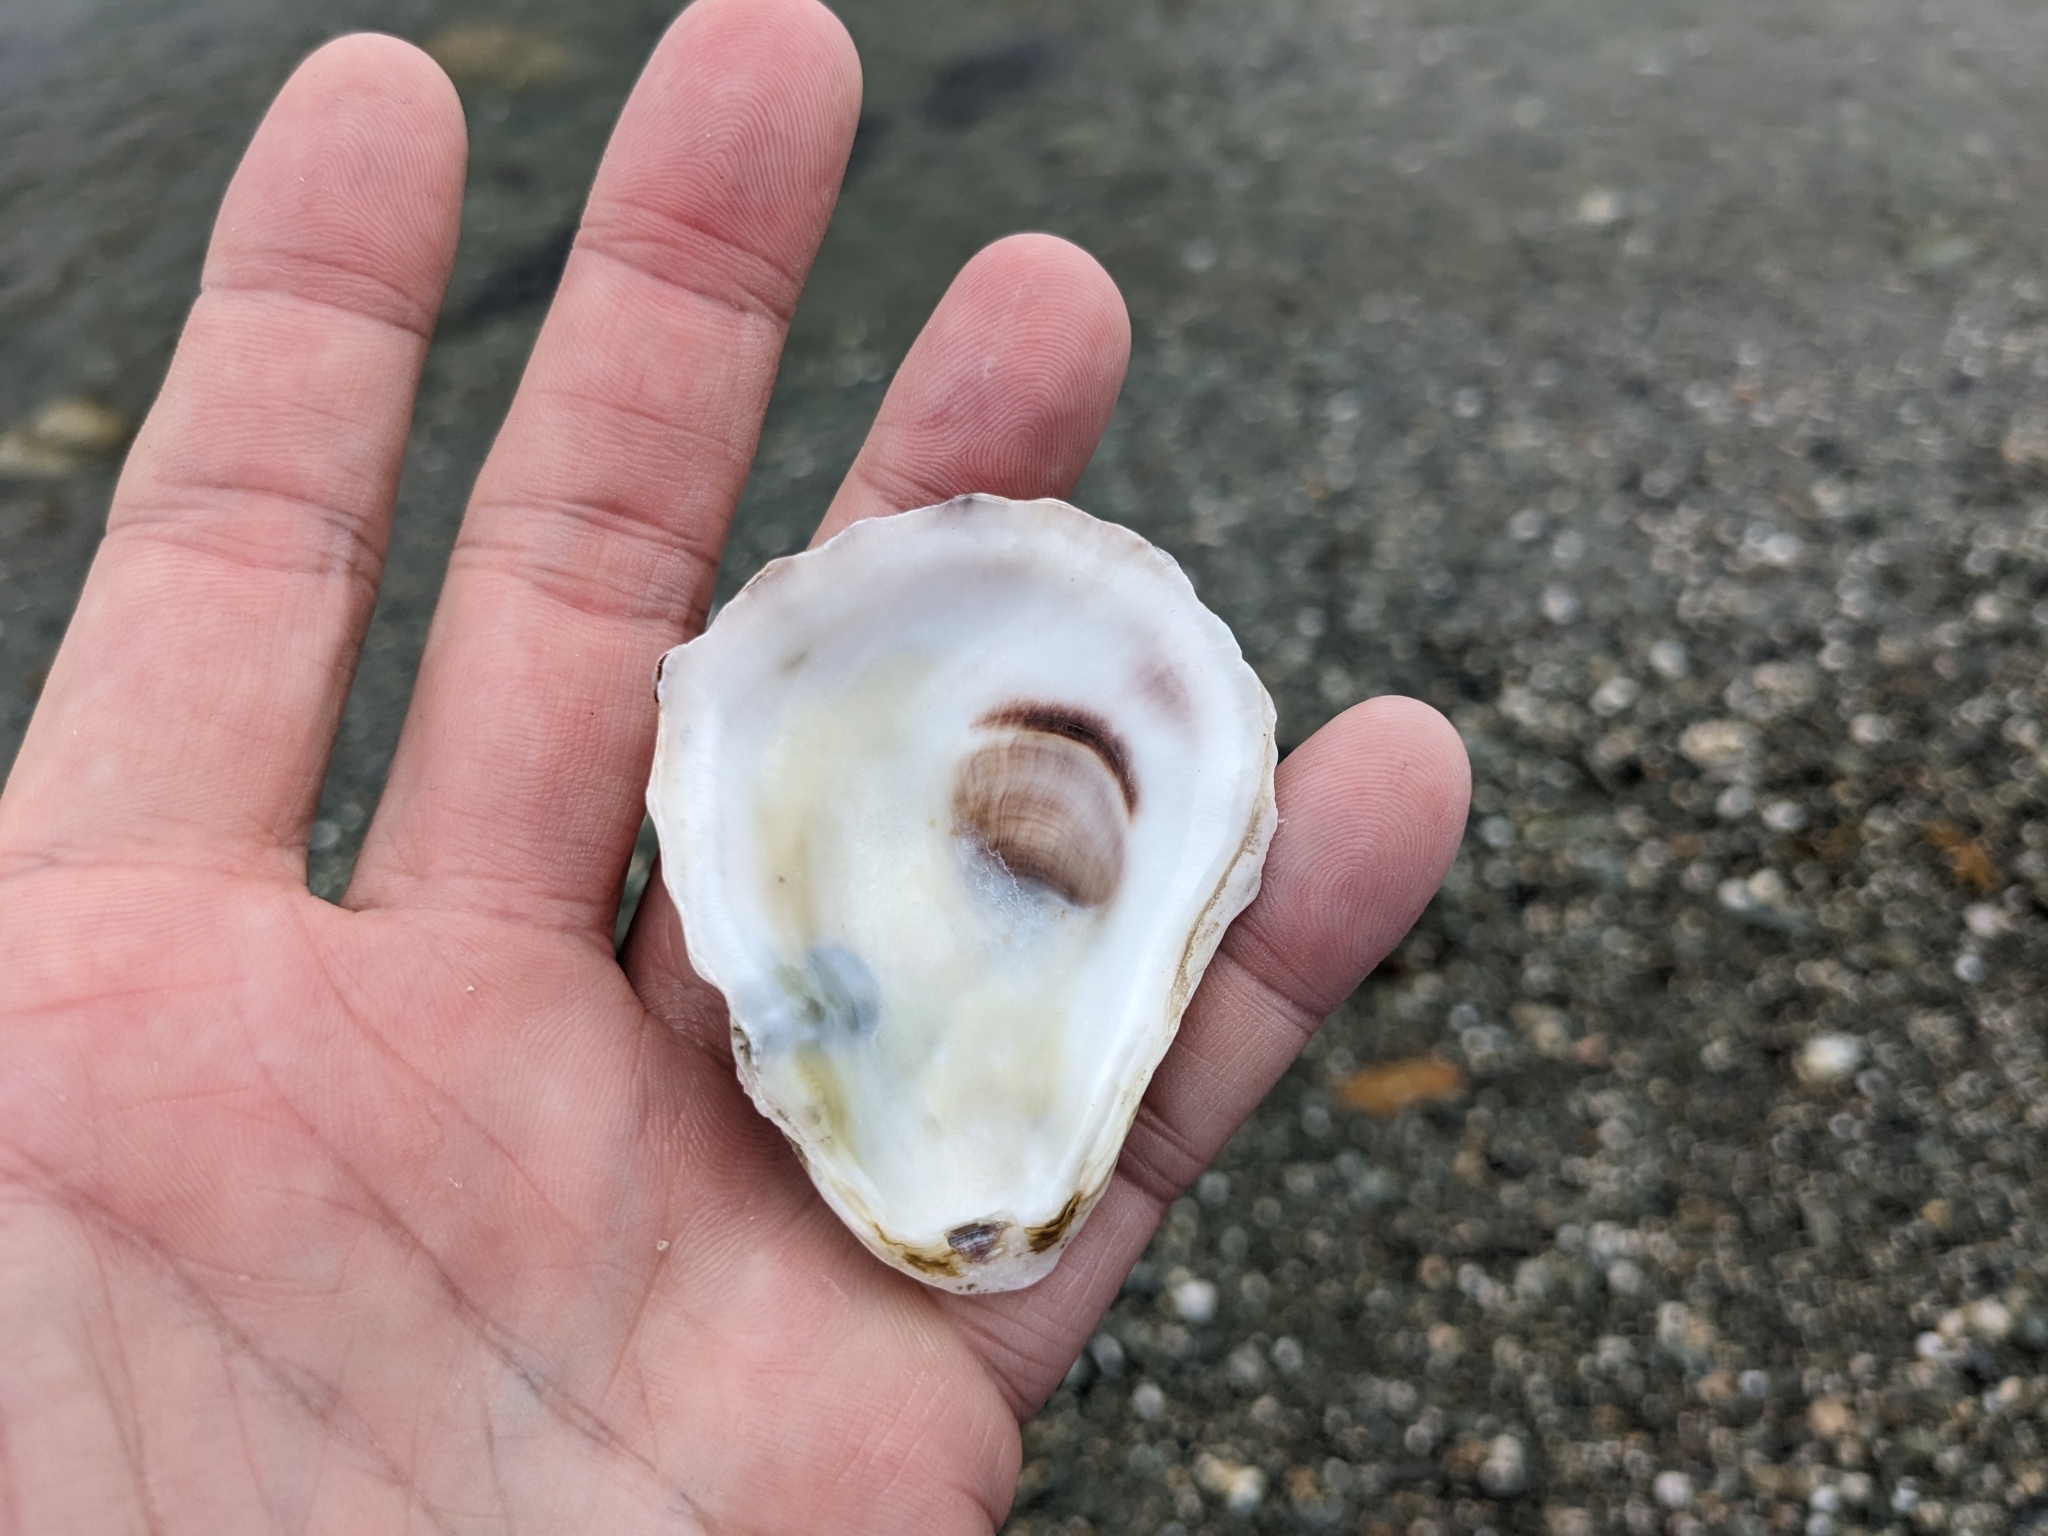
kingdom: Animalia
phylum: Mollusca
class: Bivalvia
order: Ostreida
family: Ostreidae
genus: Crassostrea
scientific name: Crassostrea virginica
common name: American oyster
